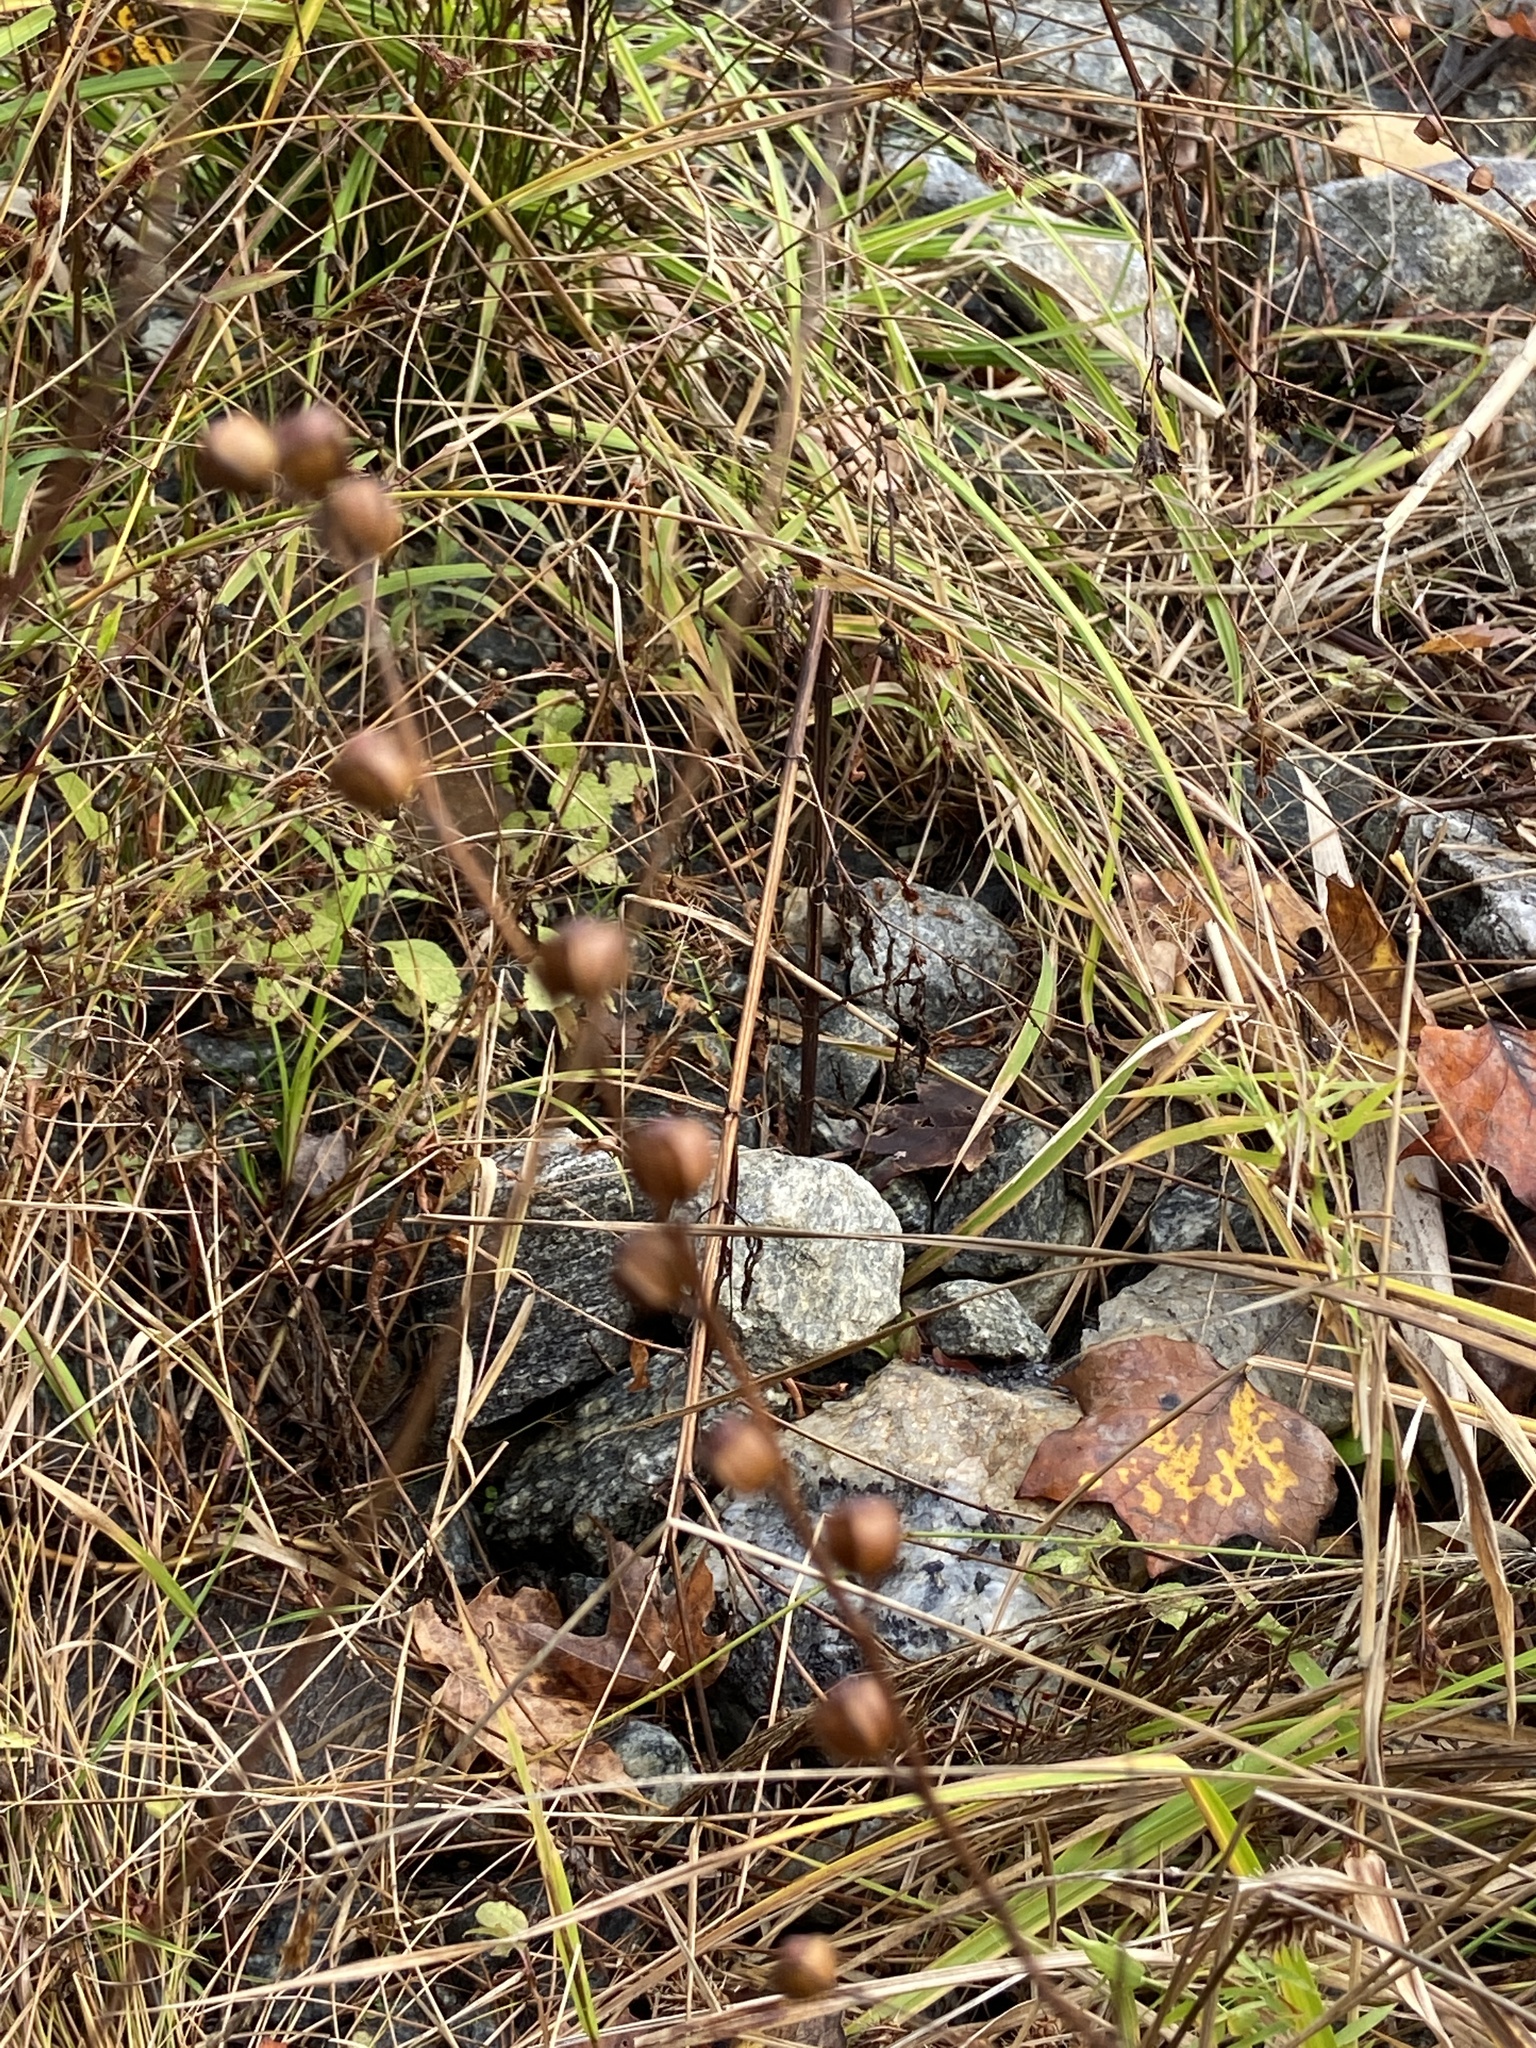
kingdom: Plantae
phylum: Tracheophyta
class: Magnoliopsida
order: Myrtales
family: Onagraceae
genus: Ludwigia
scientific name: Ludwigia alternifolia
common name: Rattlebox
